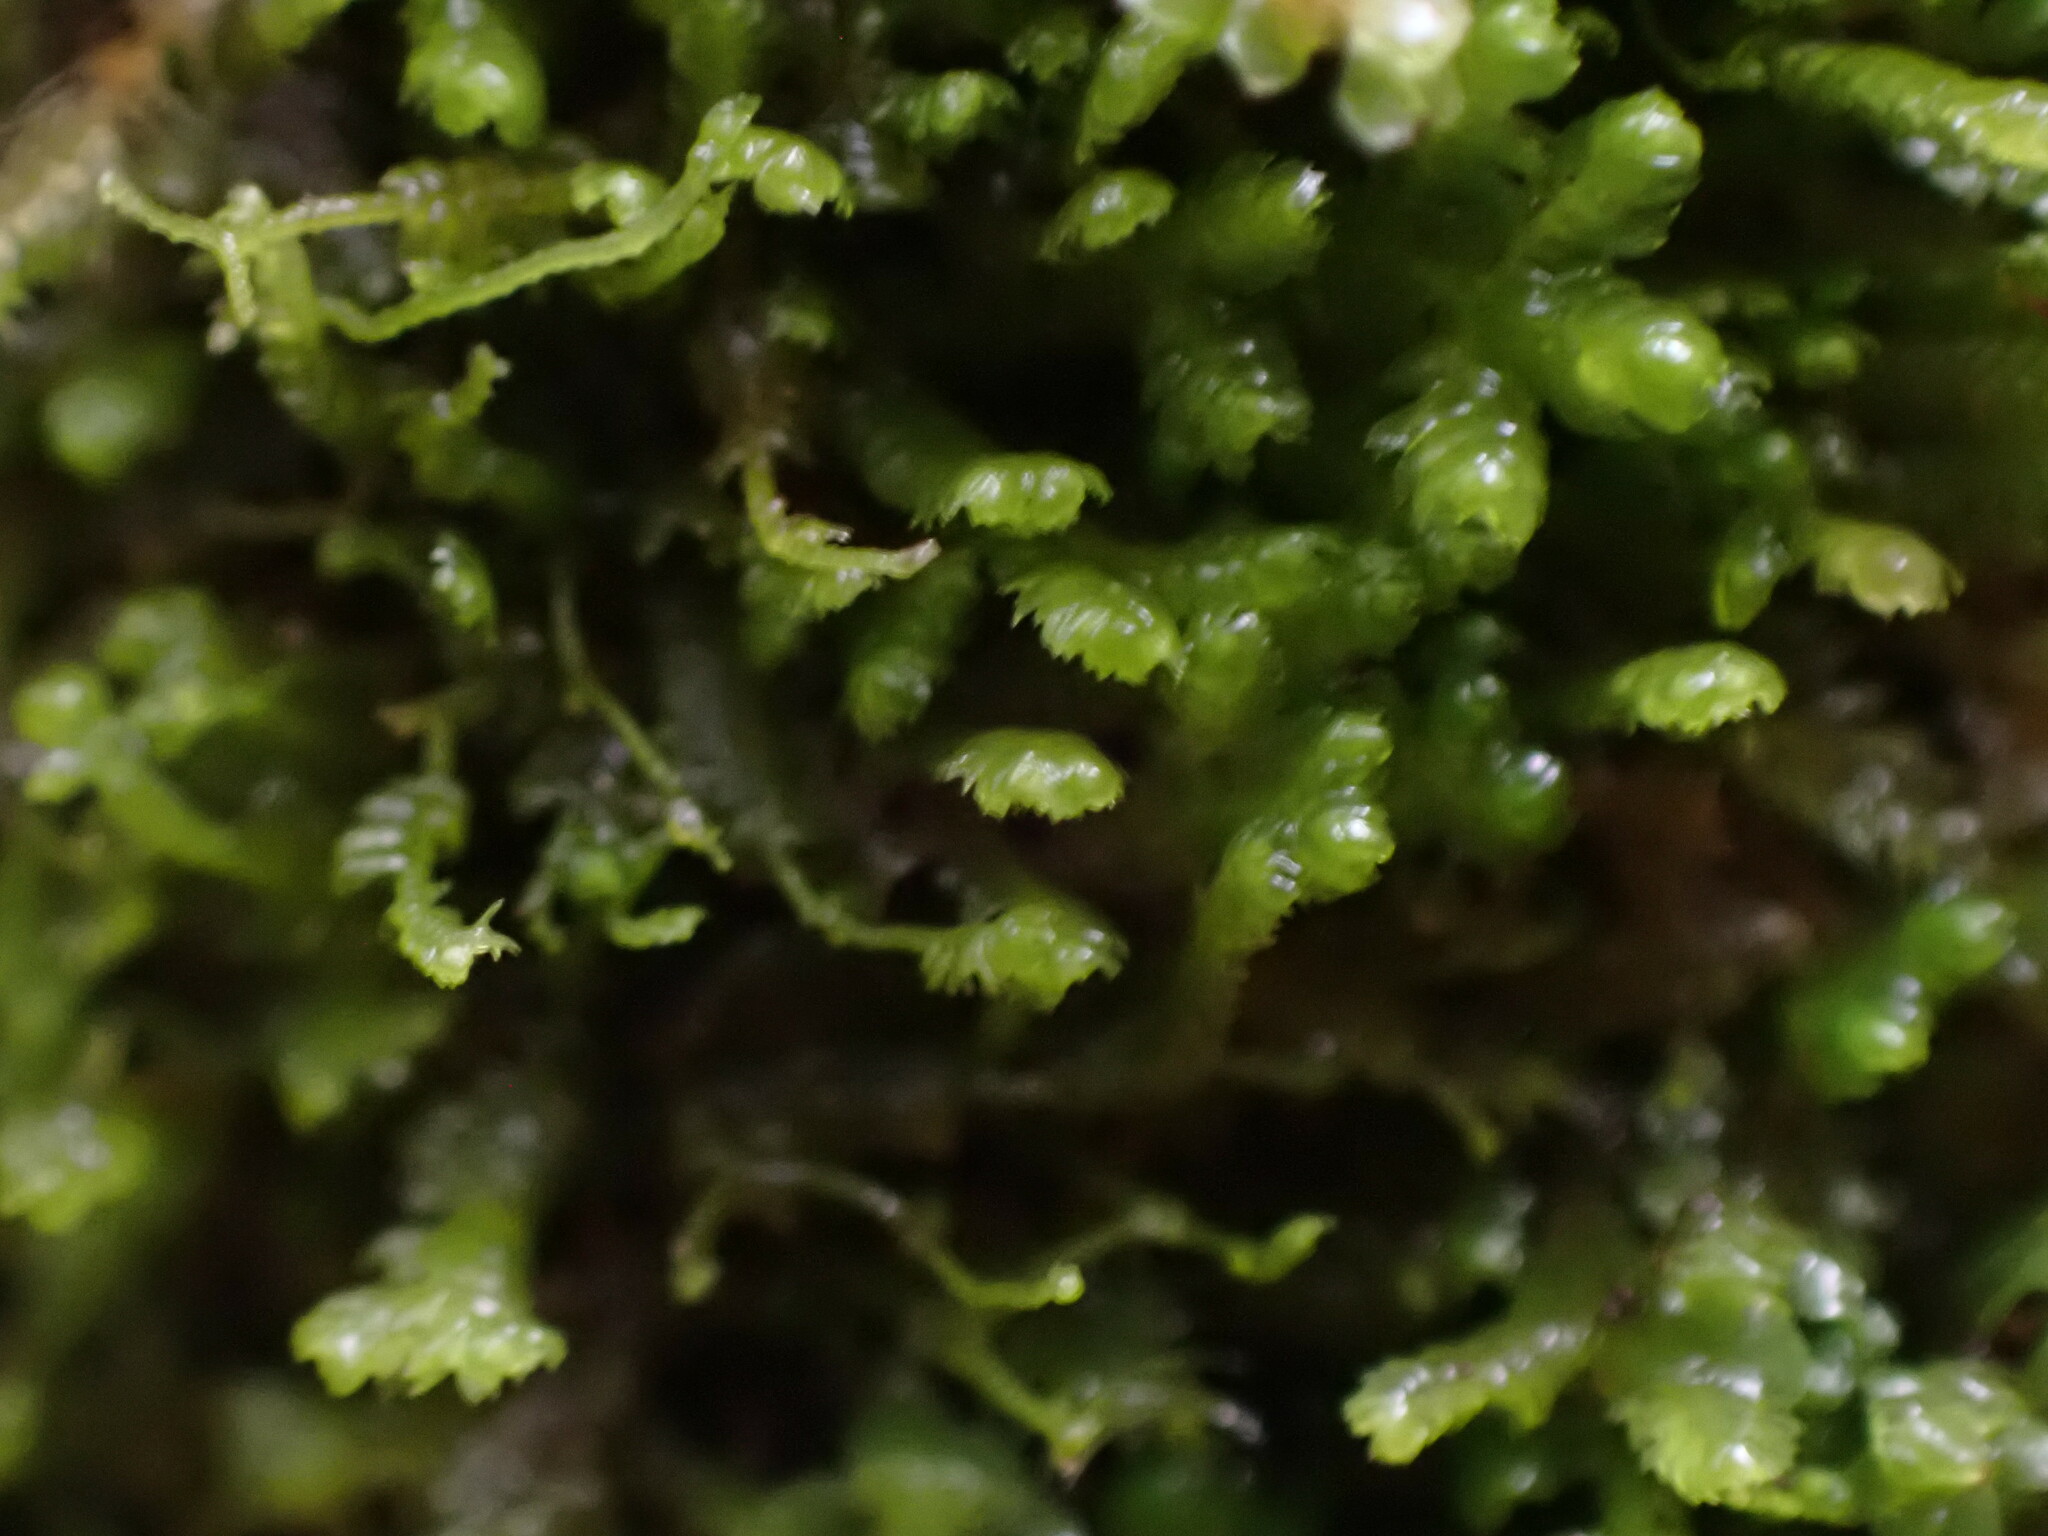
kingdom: Plantae
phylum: Marchantiophyta
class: Jungermanniopsida
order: Jungermanniales
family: Lepidoziaceae
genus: Bazzania
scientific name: Bazzania denudata
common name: Naked whipwort
